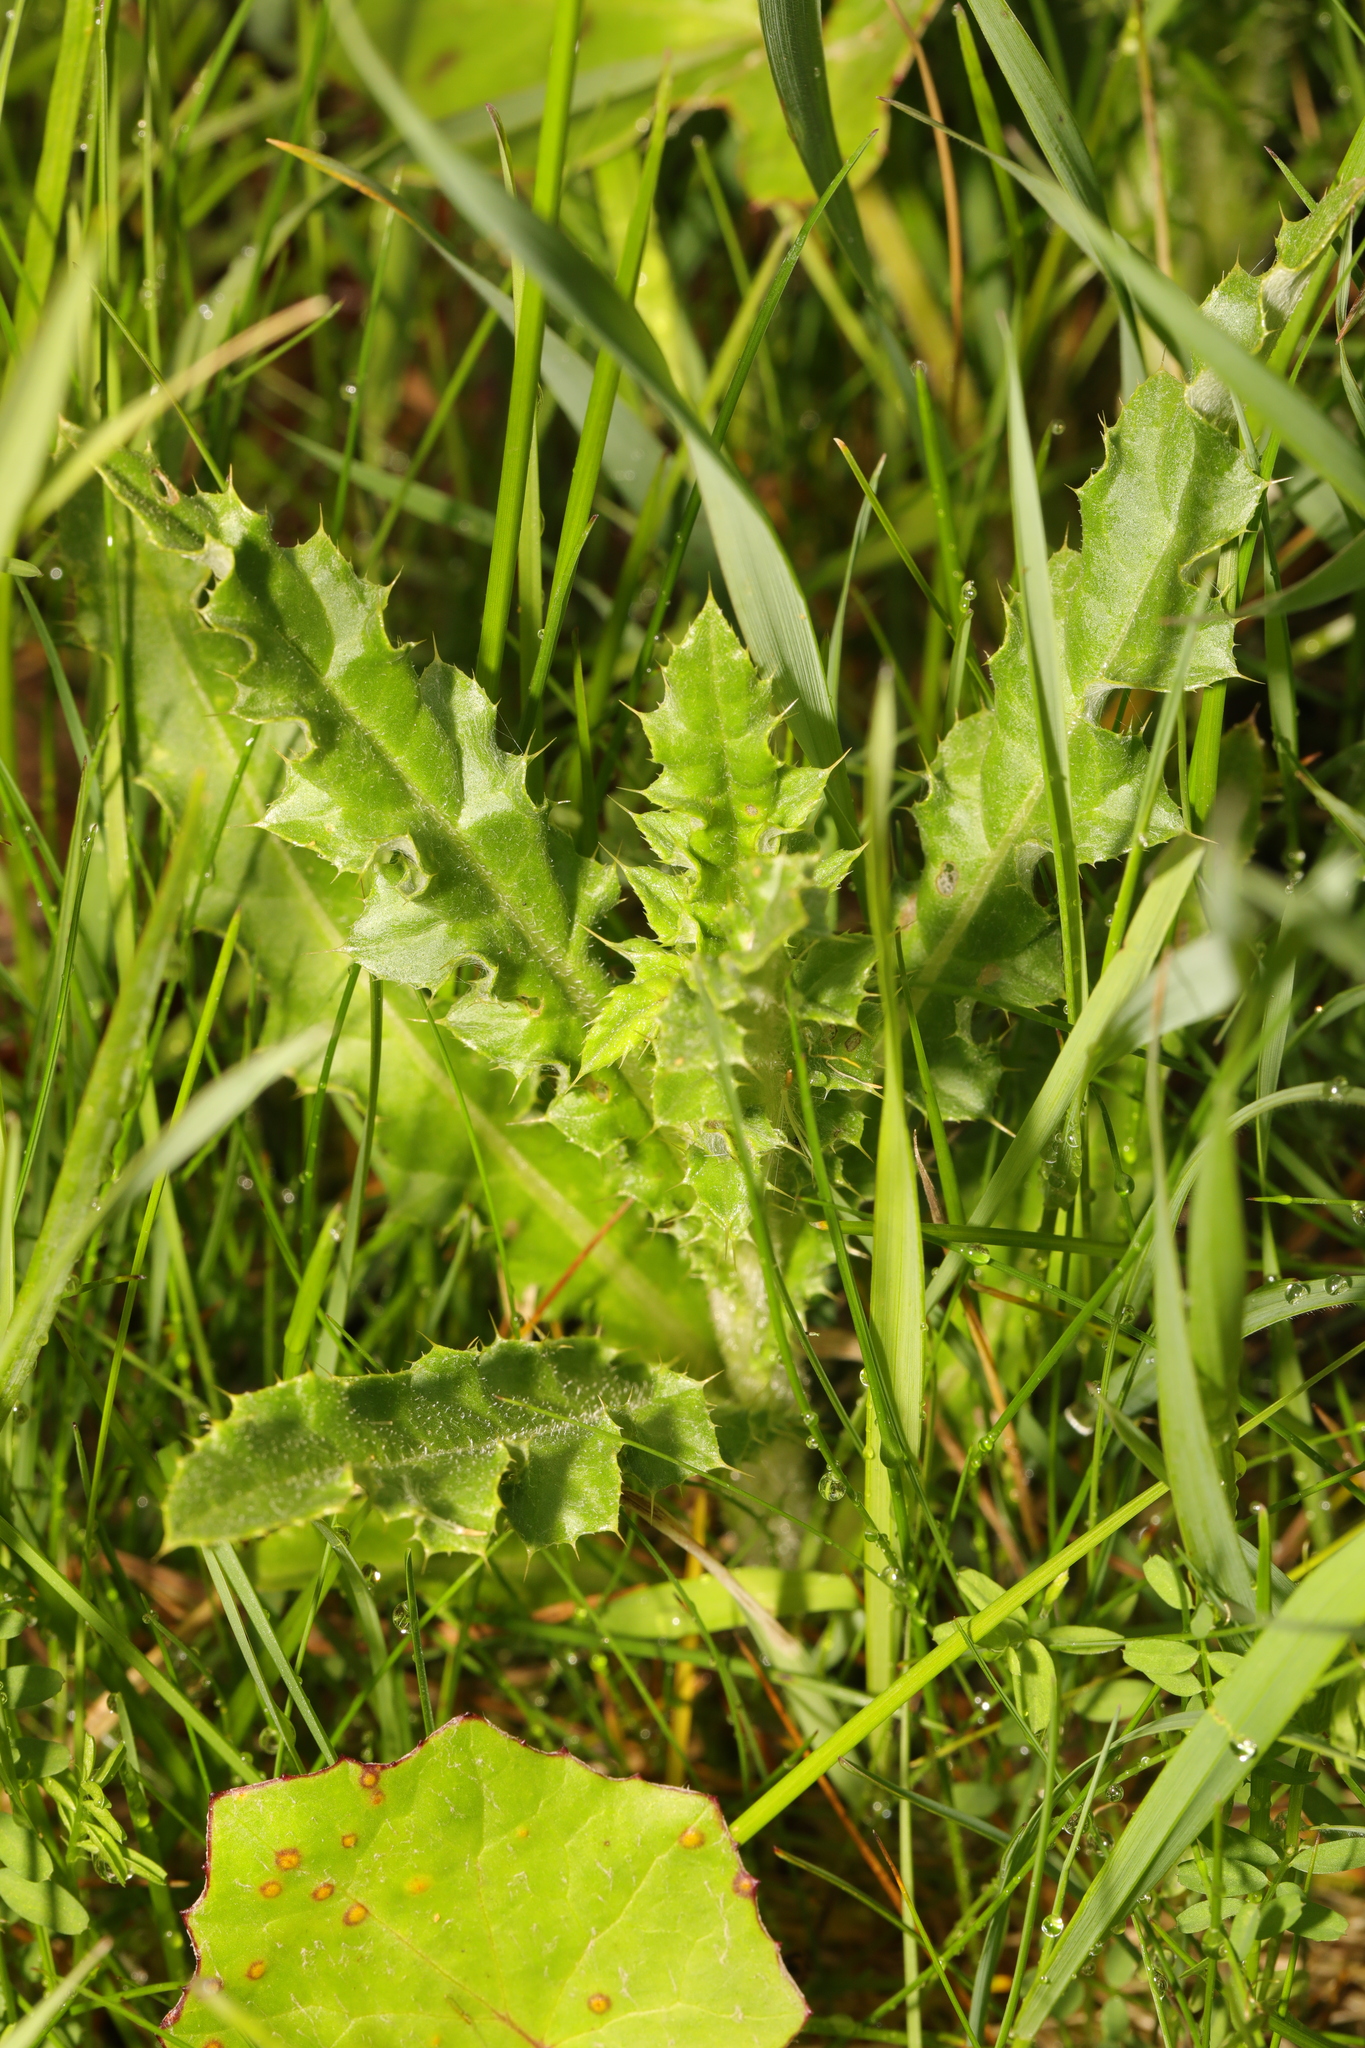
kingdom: Plantae
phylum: Tracheophyta
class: Magnoliopsida
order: Asterales
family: Asteraceae
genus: Cirsium
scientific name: Cirsium arvense
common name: Creeping thistle
